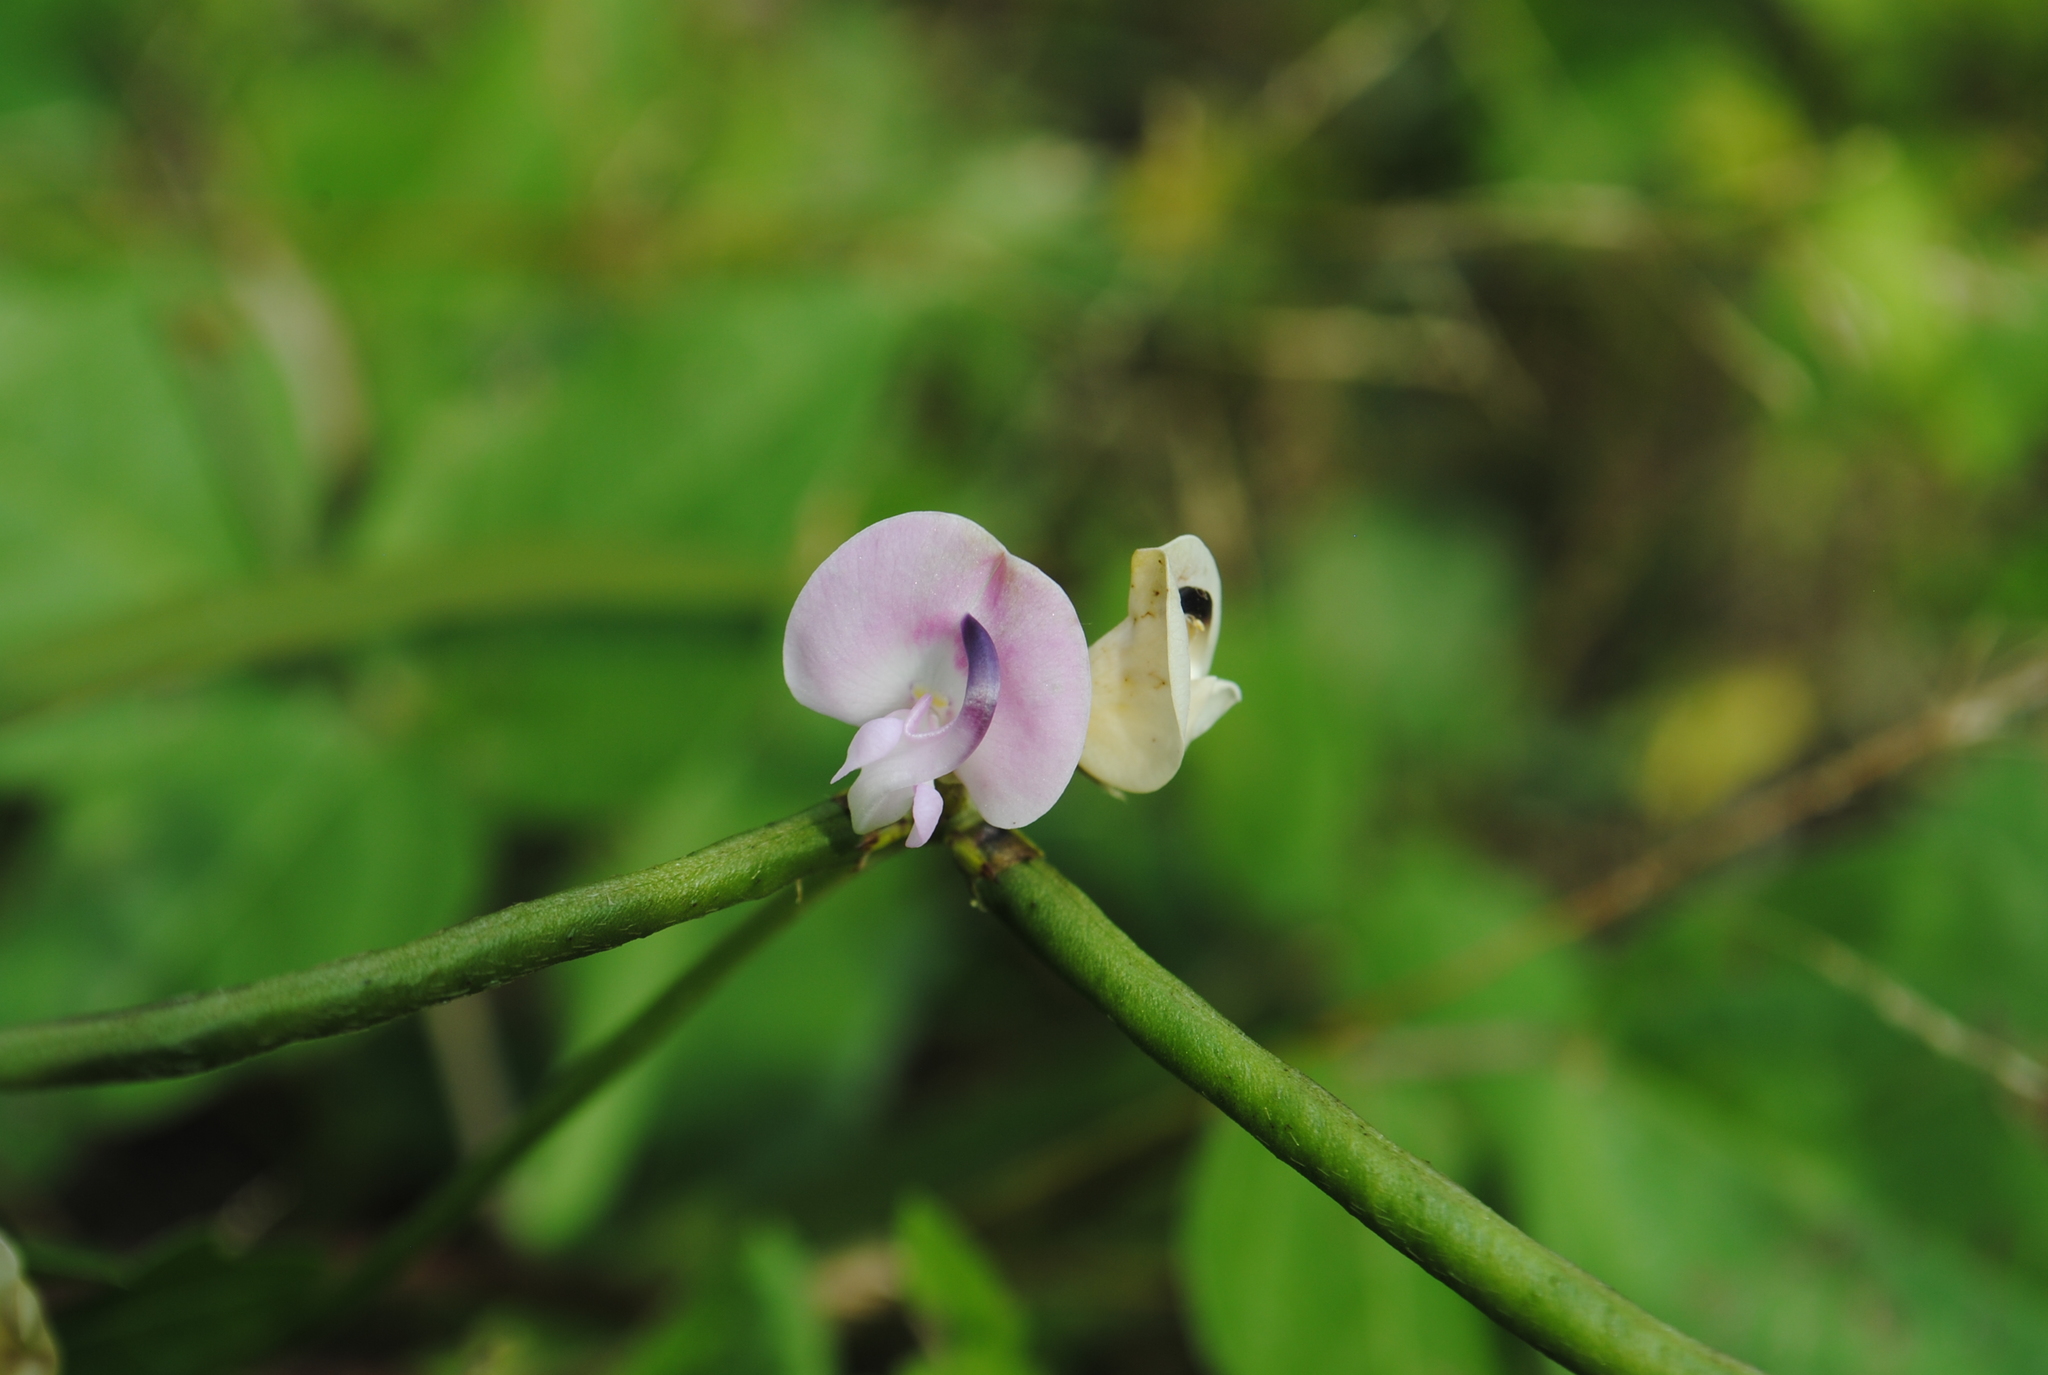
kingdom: Plantae
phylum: Tracheophyta
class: Magnoliopsida
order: Fabales
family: Fabaceae
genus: Strophostyles
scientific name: Strophostyles helvola
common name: Trailing wild bean
